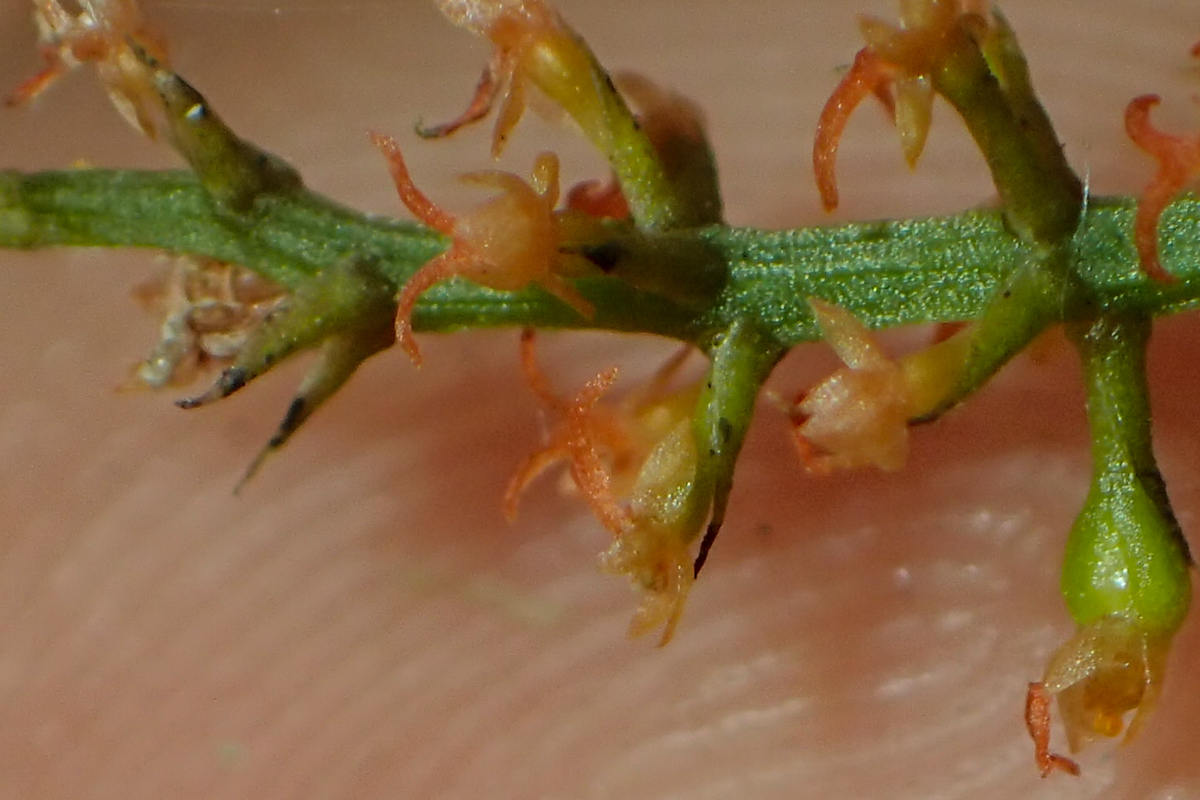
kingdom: Plantae
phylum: Tracheophyta
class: Liliopsida
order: Asparagales
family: Orchidaceae
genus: Oberonia
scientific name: Oberonia rufilabris
